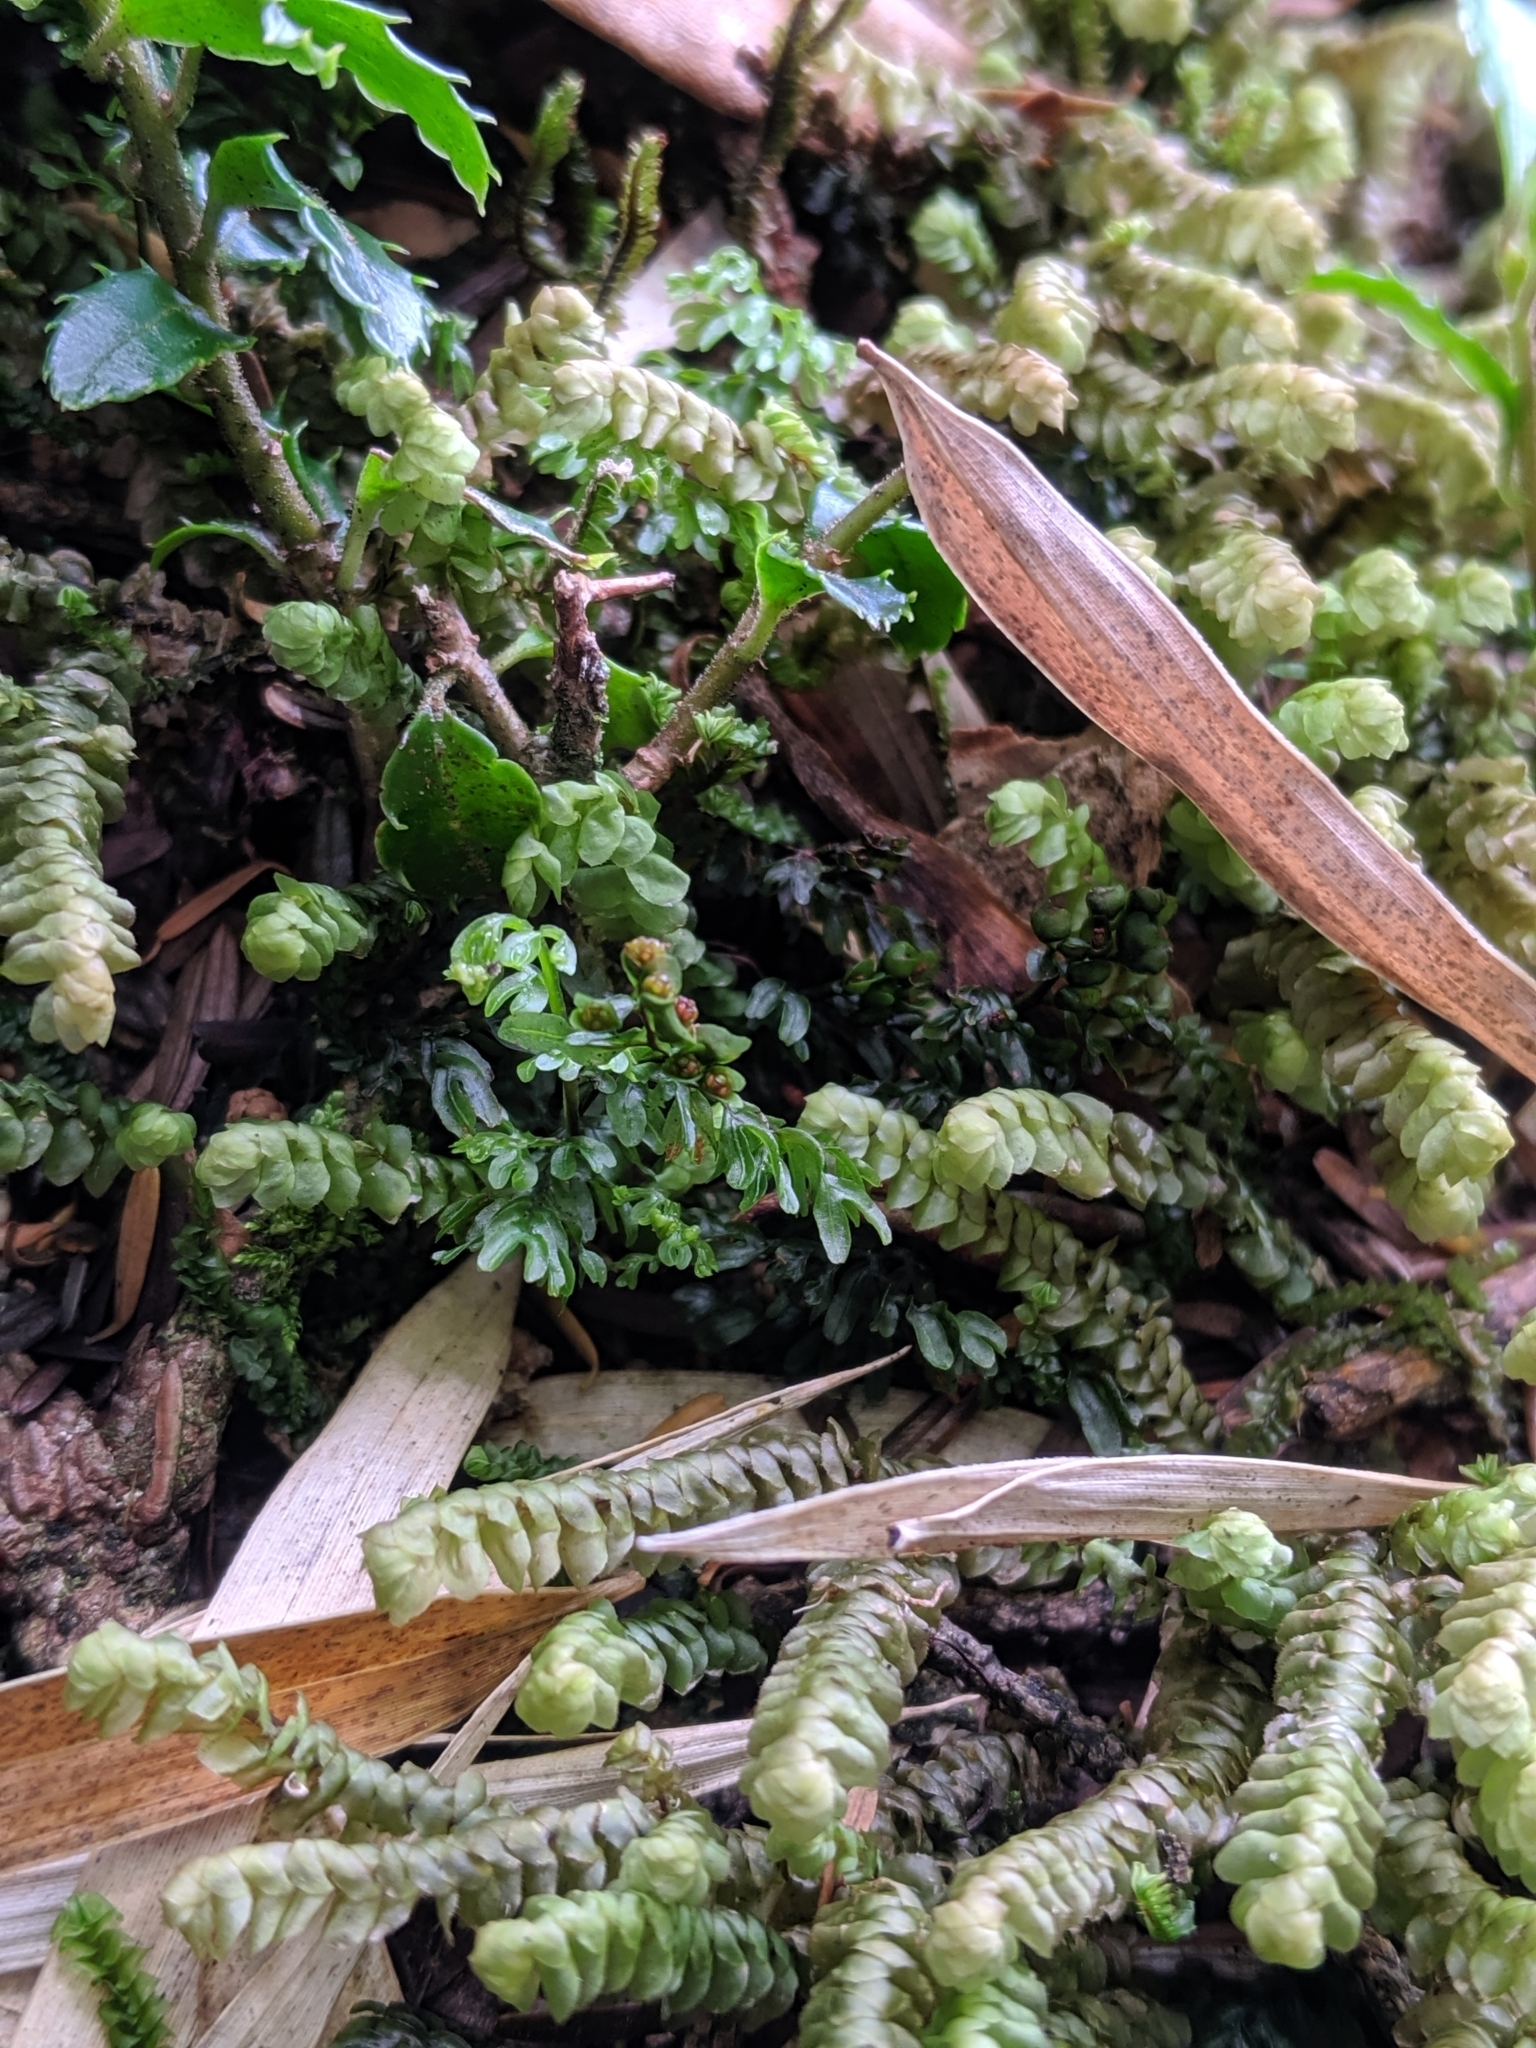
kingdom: Plantae
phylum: Tracheophyta
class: Polypodiopsida
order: Hymenophyllales
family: Hymenophyllaceae
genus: Callistopteris
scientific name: Callistopteris polyantha
